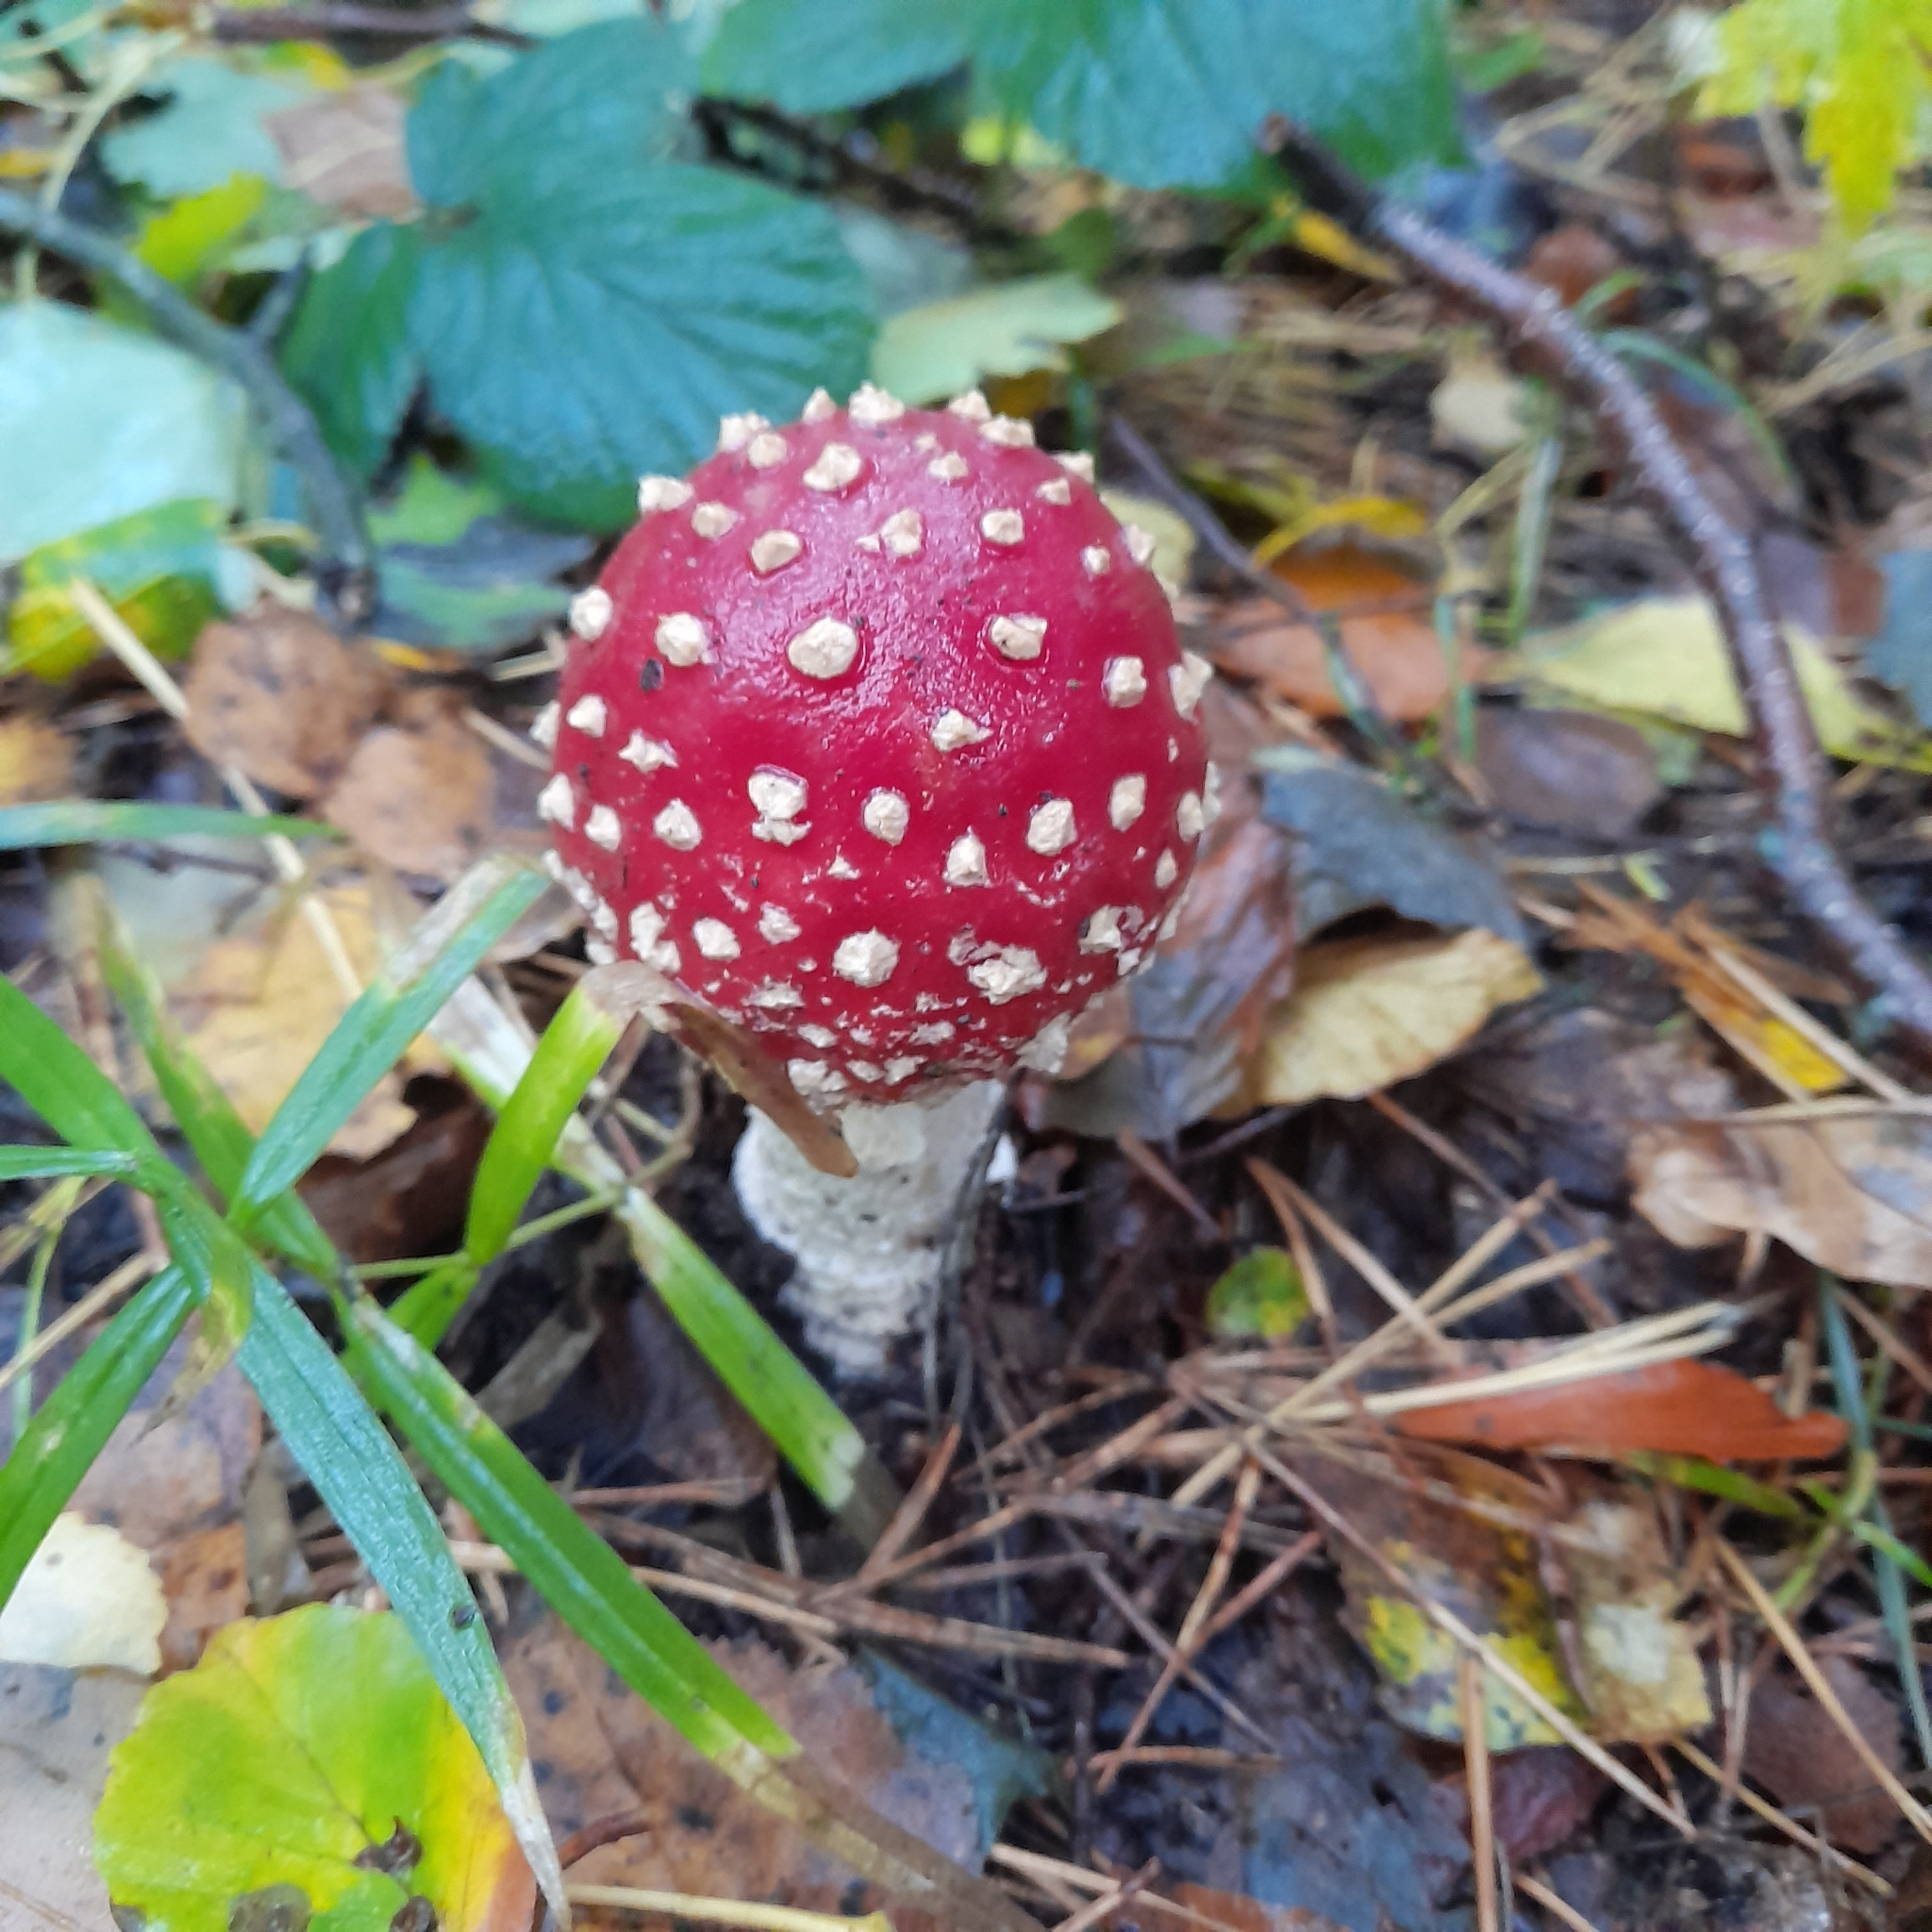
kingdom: Fungi
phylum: Basidiomycota
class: Agaricomycetes
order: Agaricales
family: Amanitaceae
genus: Amanita
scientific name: Amanita muscaria
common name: Fly agaric
